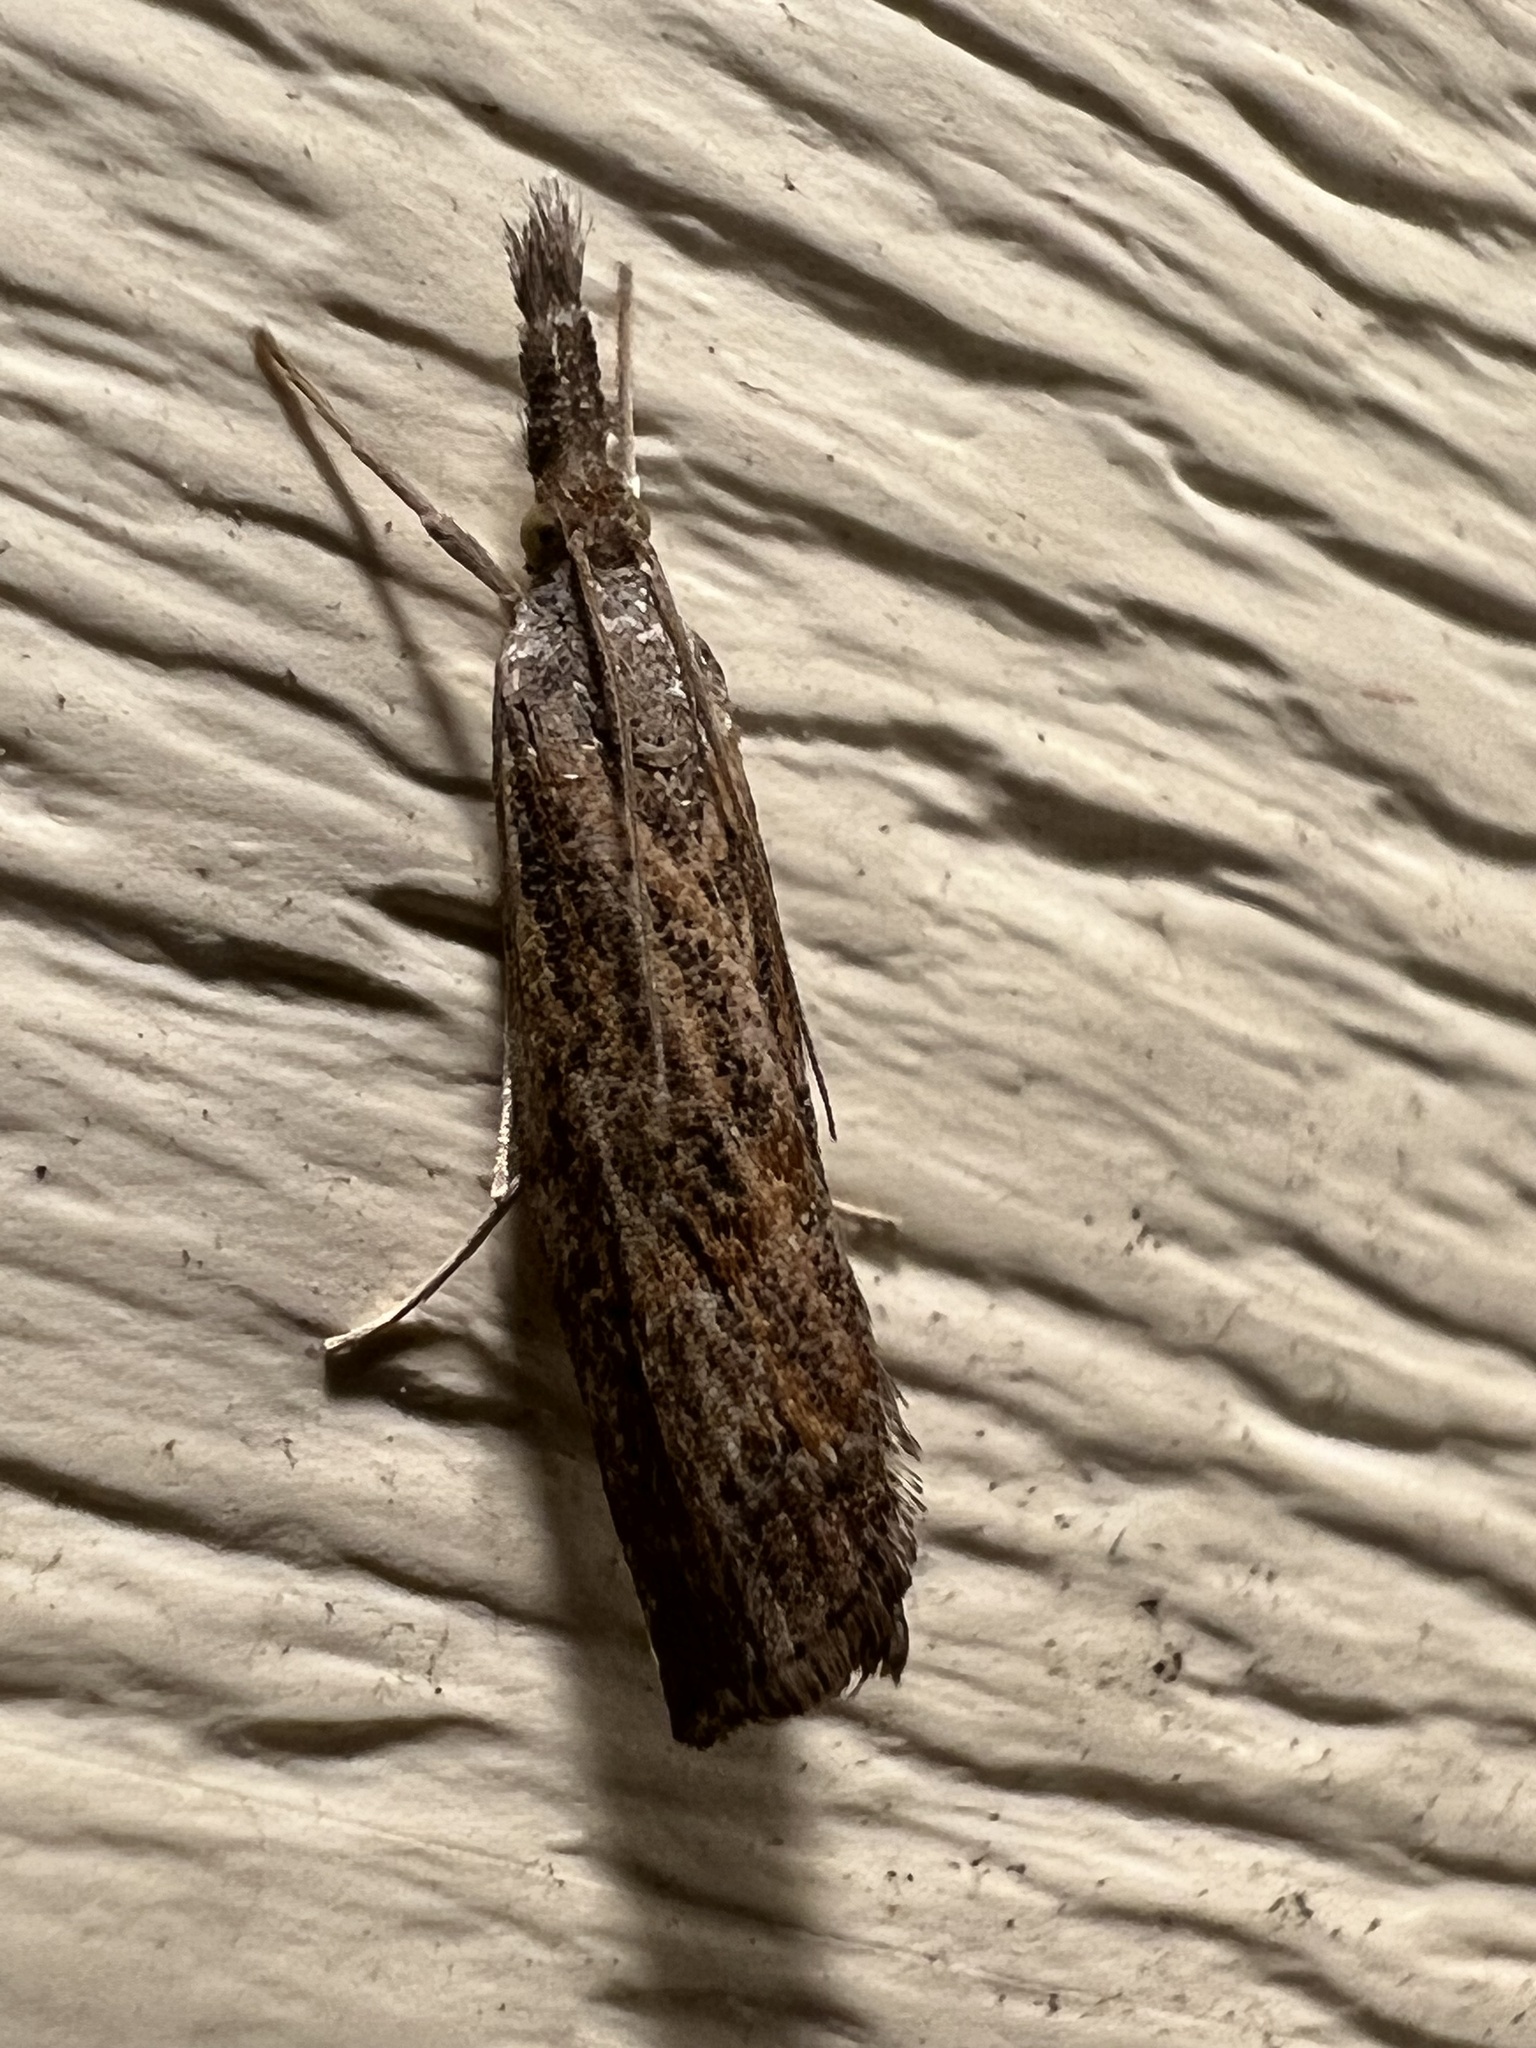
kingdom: Animalia
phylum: Arthropoda
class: Insecta
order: Lepidoptera
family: Crambidae
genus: Neodactria
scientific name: Neodactria luteolellus
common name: Mottled grass-veneer
